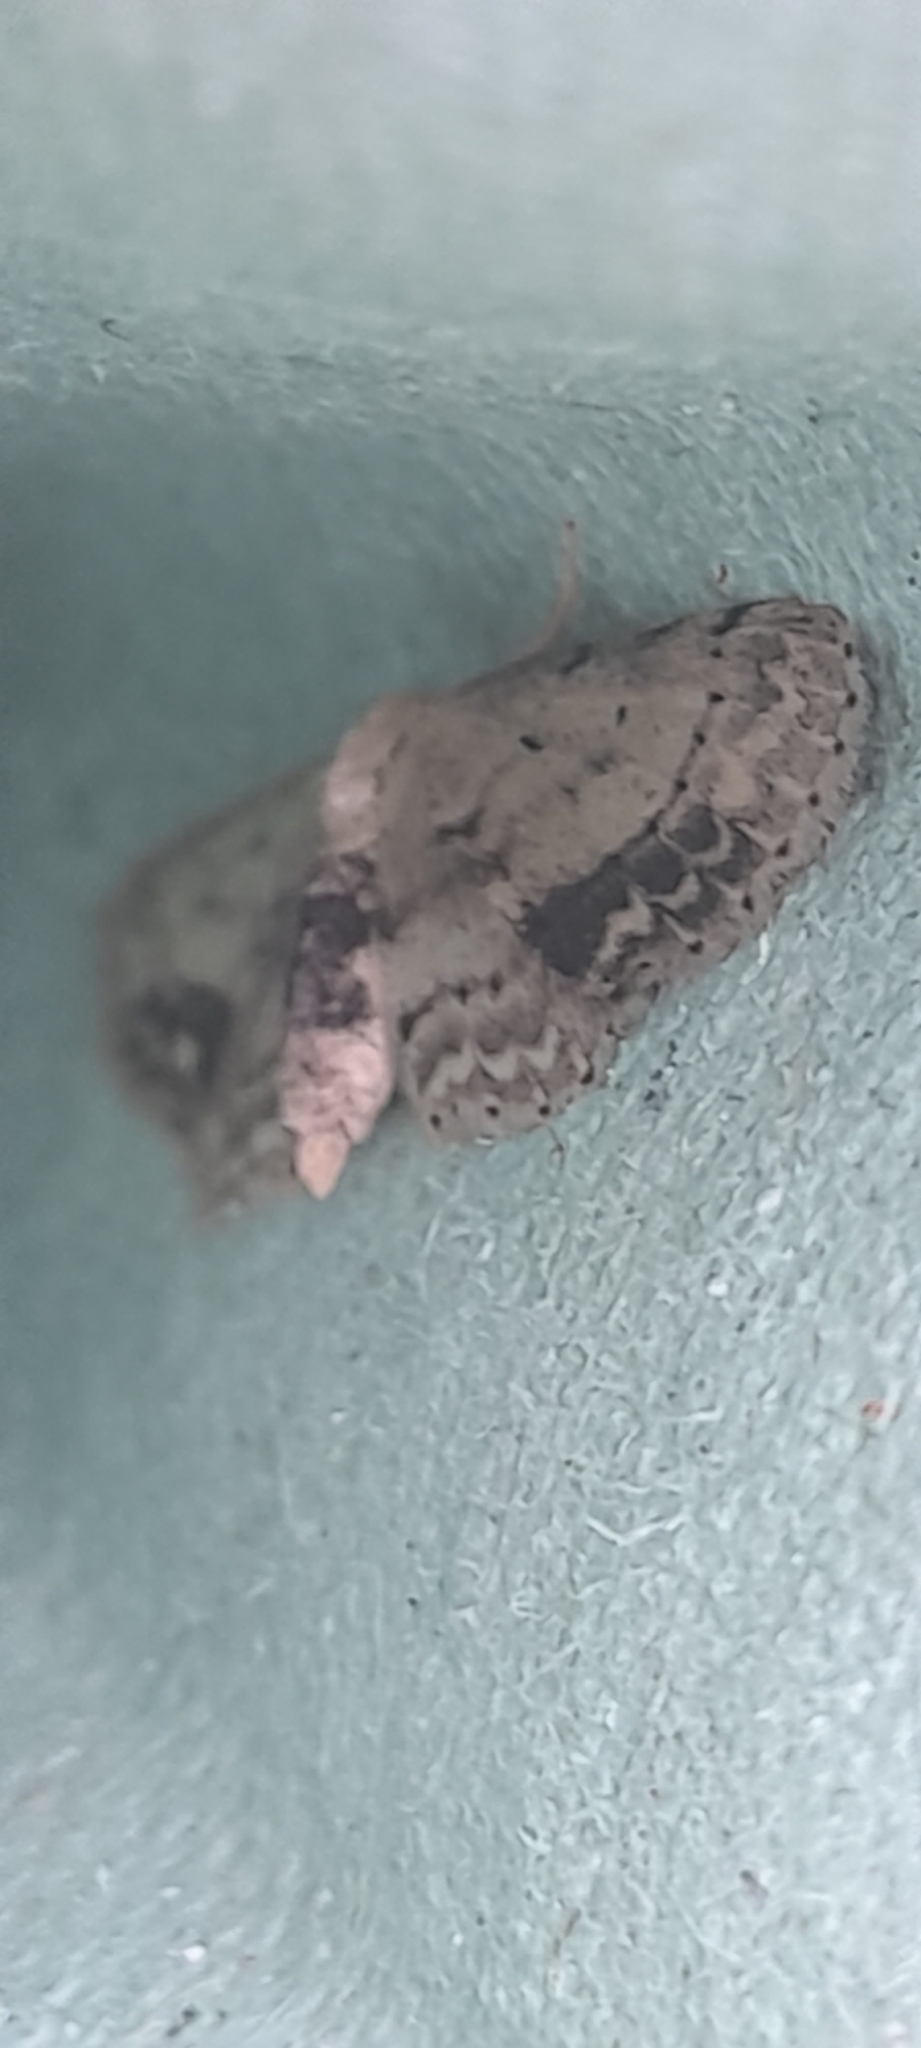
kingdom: Animalia
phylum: Arthropoda
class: Insecta
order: Lepidoptera
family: Geometridae
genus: Idaea
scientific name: Idaea dimidiata
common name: Single-dotted wave
